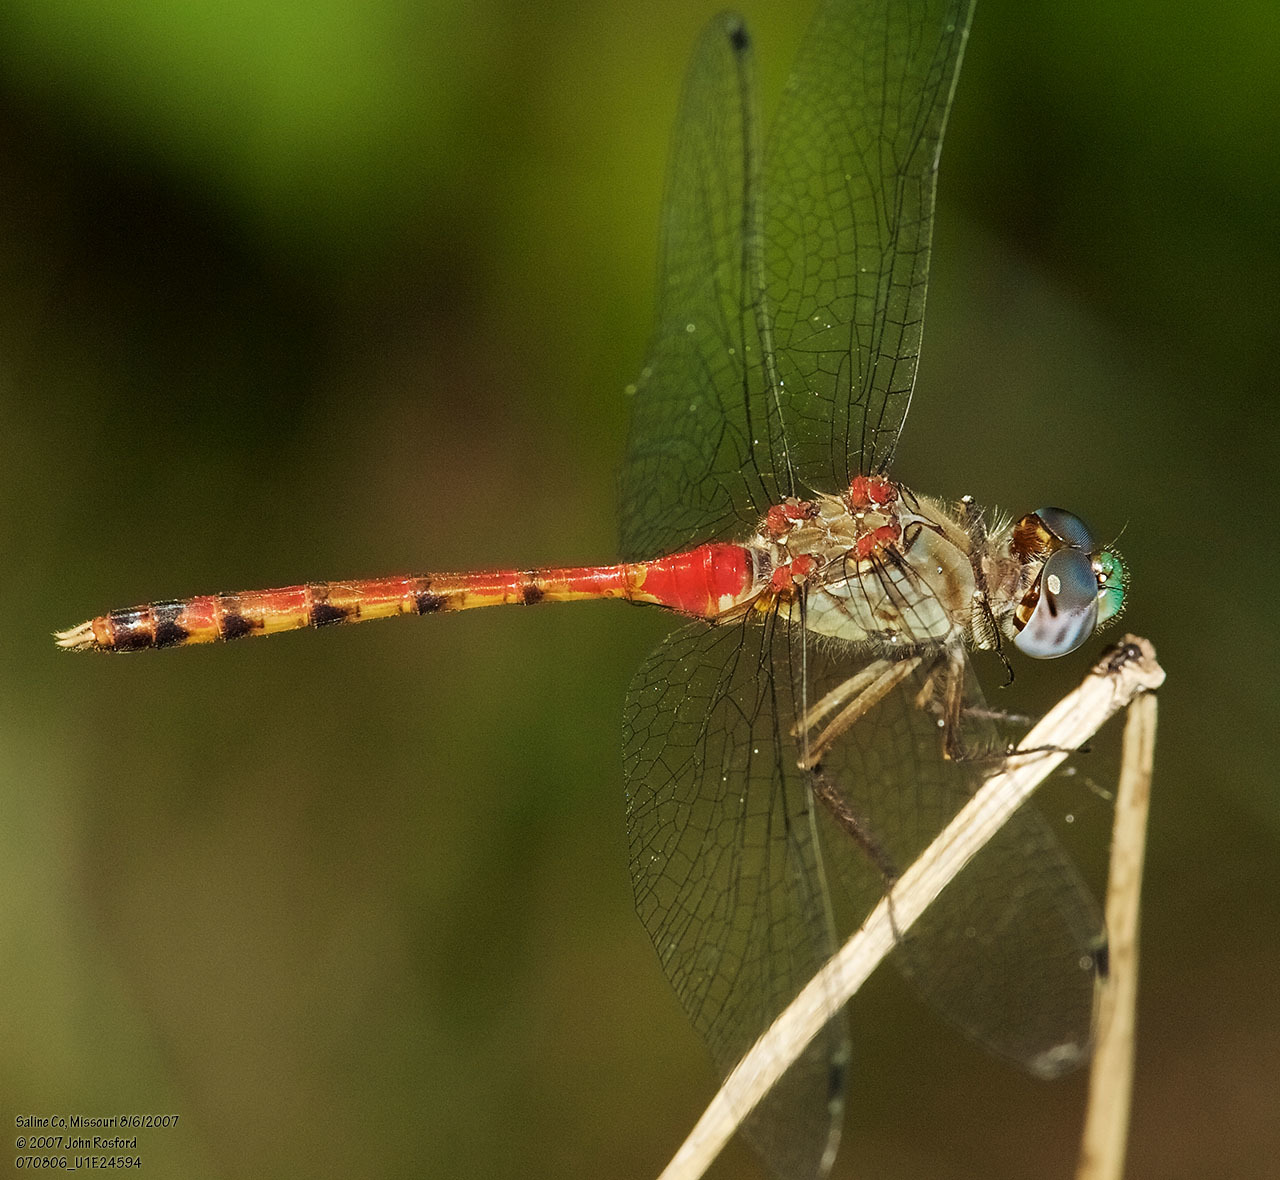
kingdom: Animalia
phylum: Arthropoda
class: Insecta
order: Odonata
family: Libellulidae
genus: Sympetrum
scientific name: Sympetrum ambiguum
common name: Blue-faced meadowhawk
